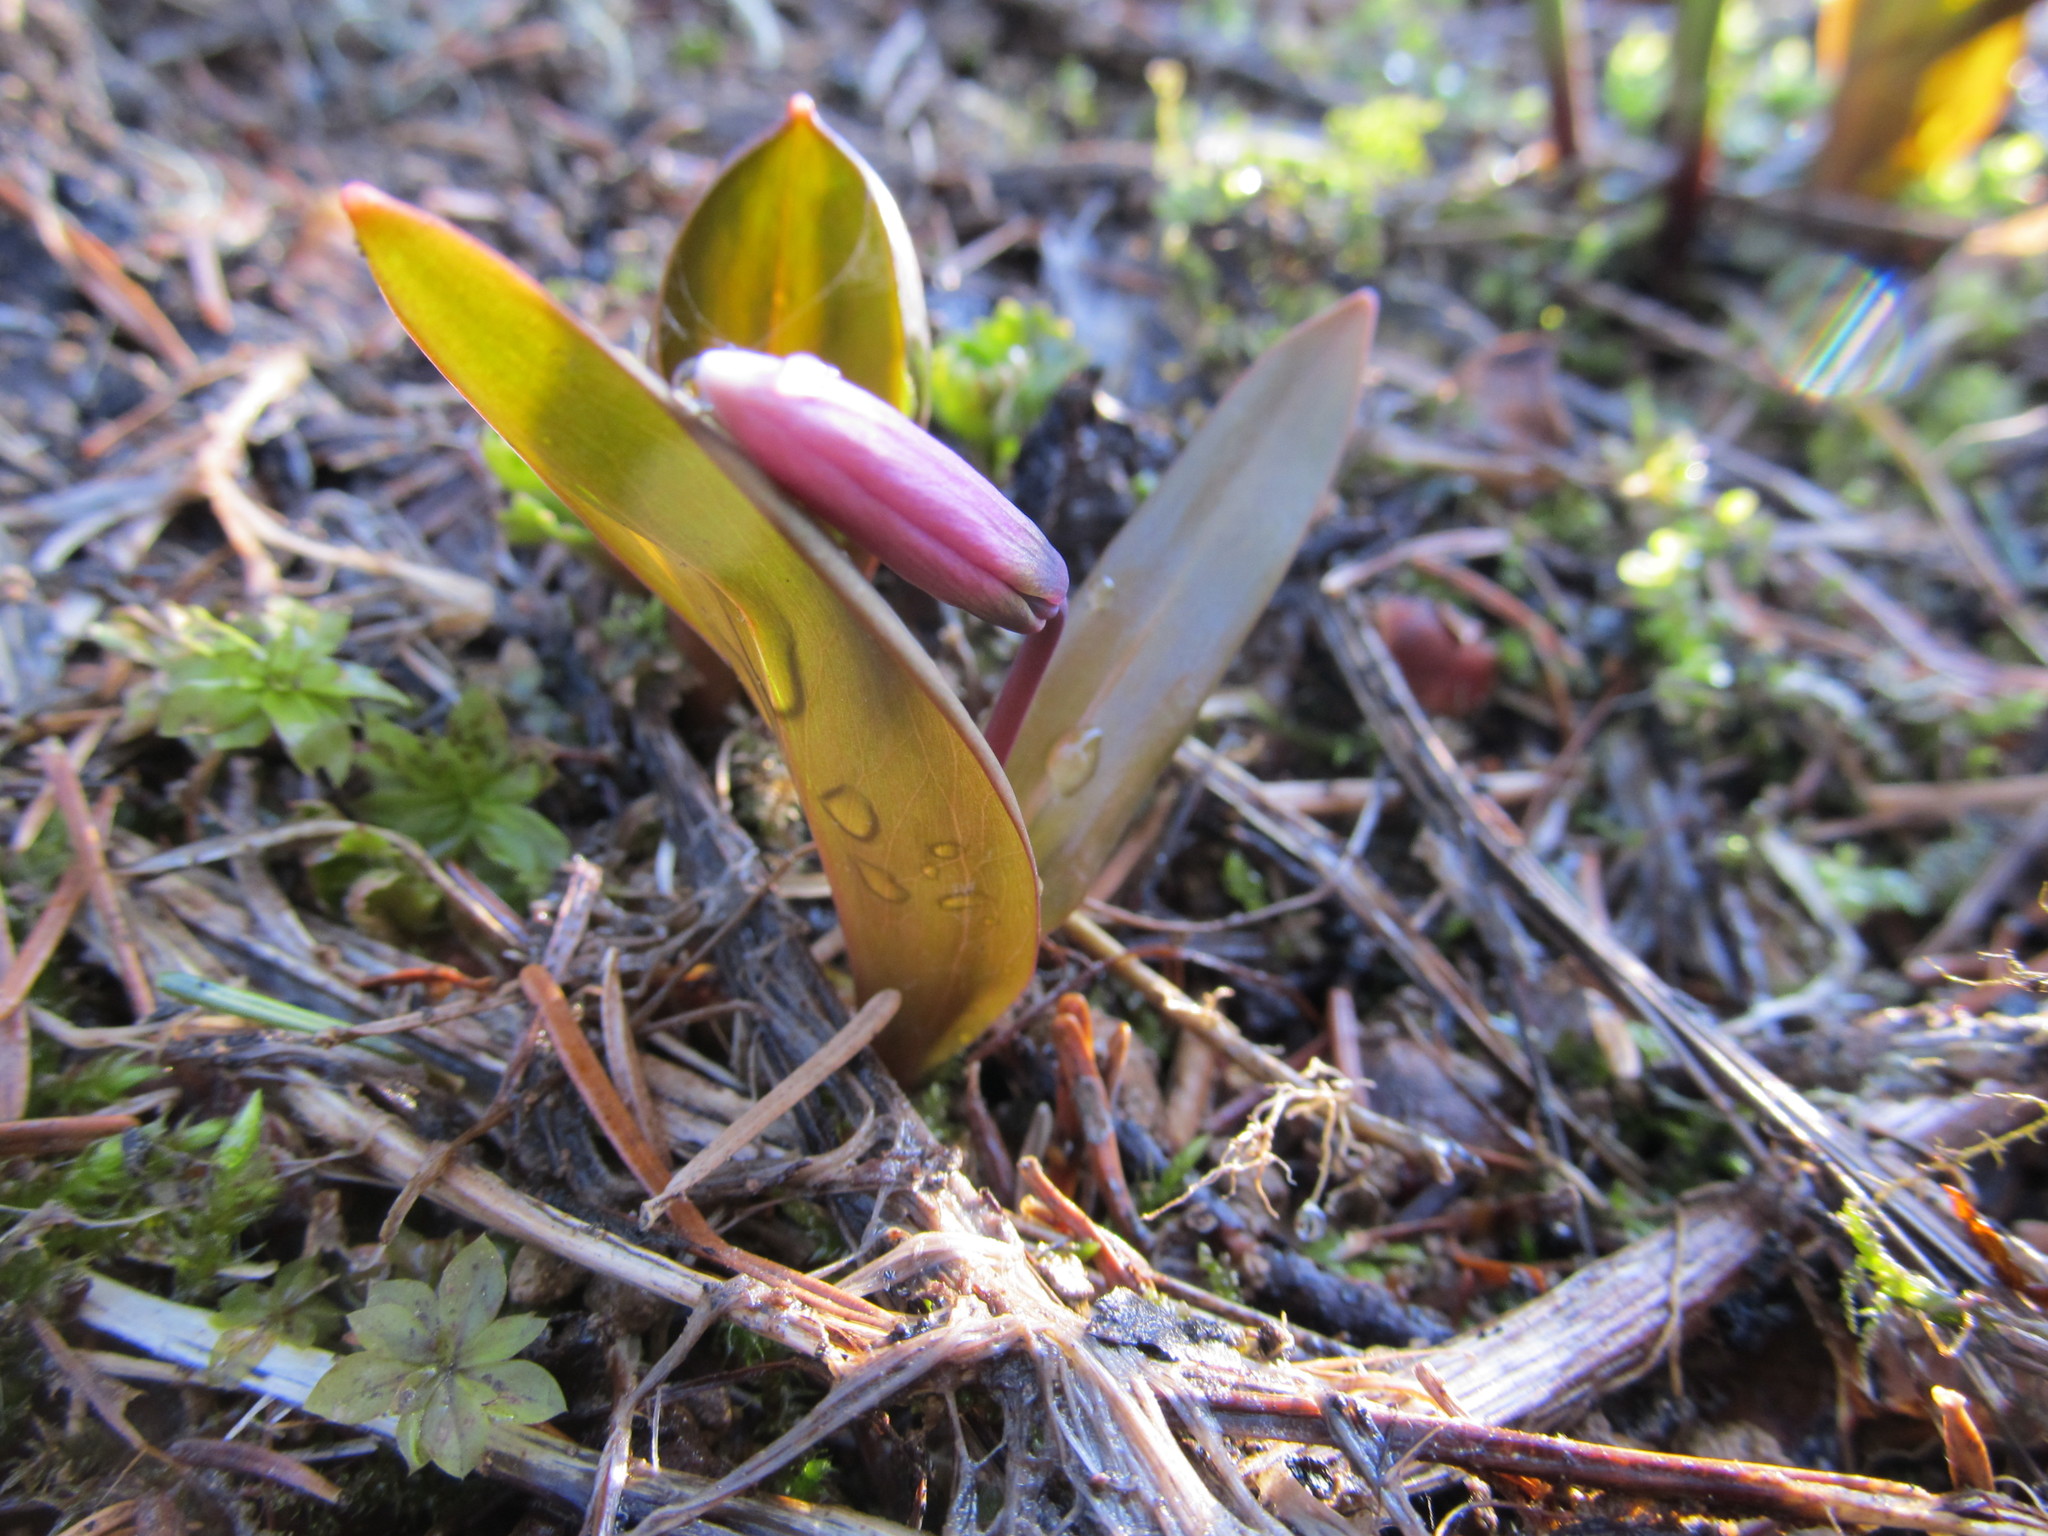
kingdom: Plantae
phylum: Tracheophyta
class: Liliopsida
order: Liliales
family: Liliaceae
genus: Erythronium
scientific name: Erythronium sibiricum
